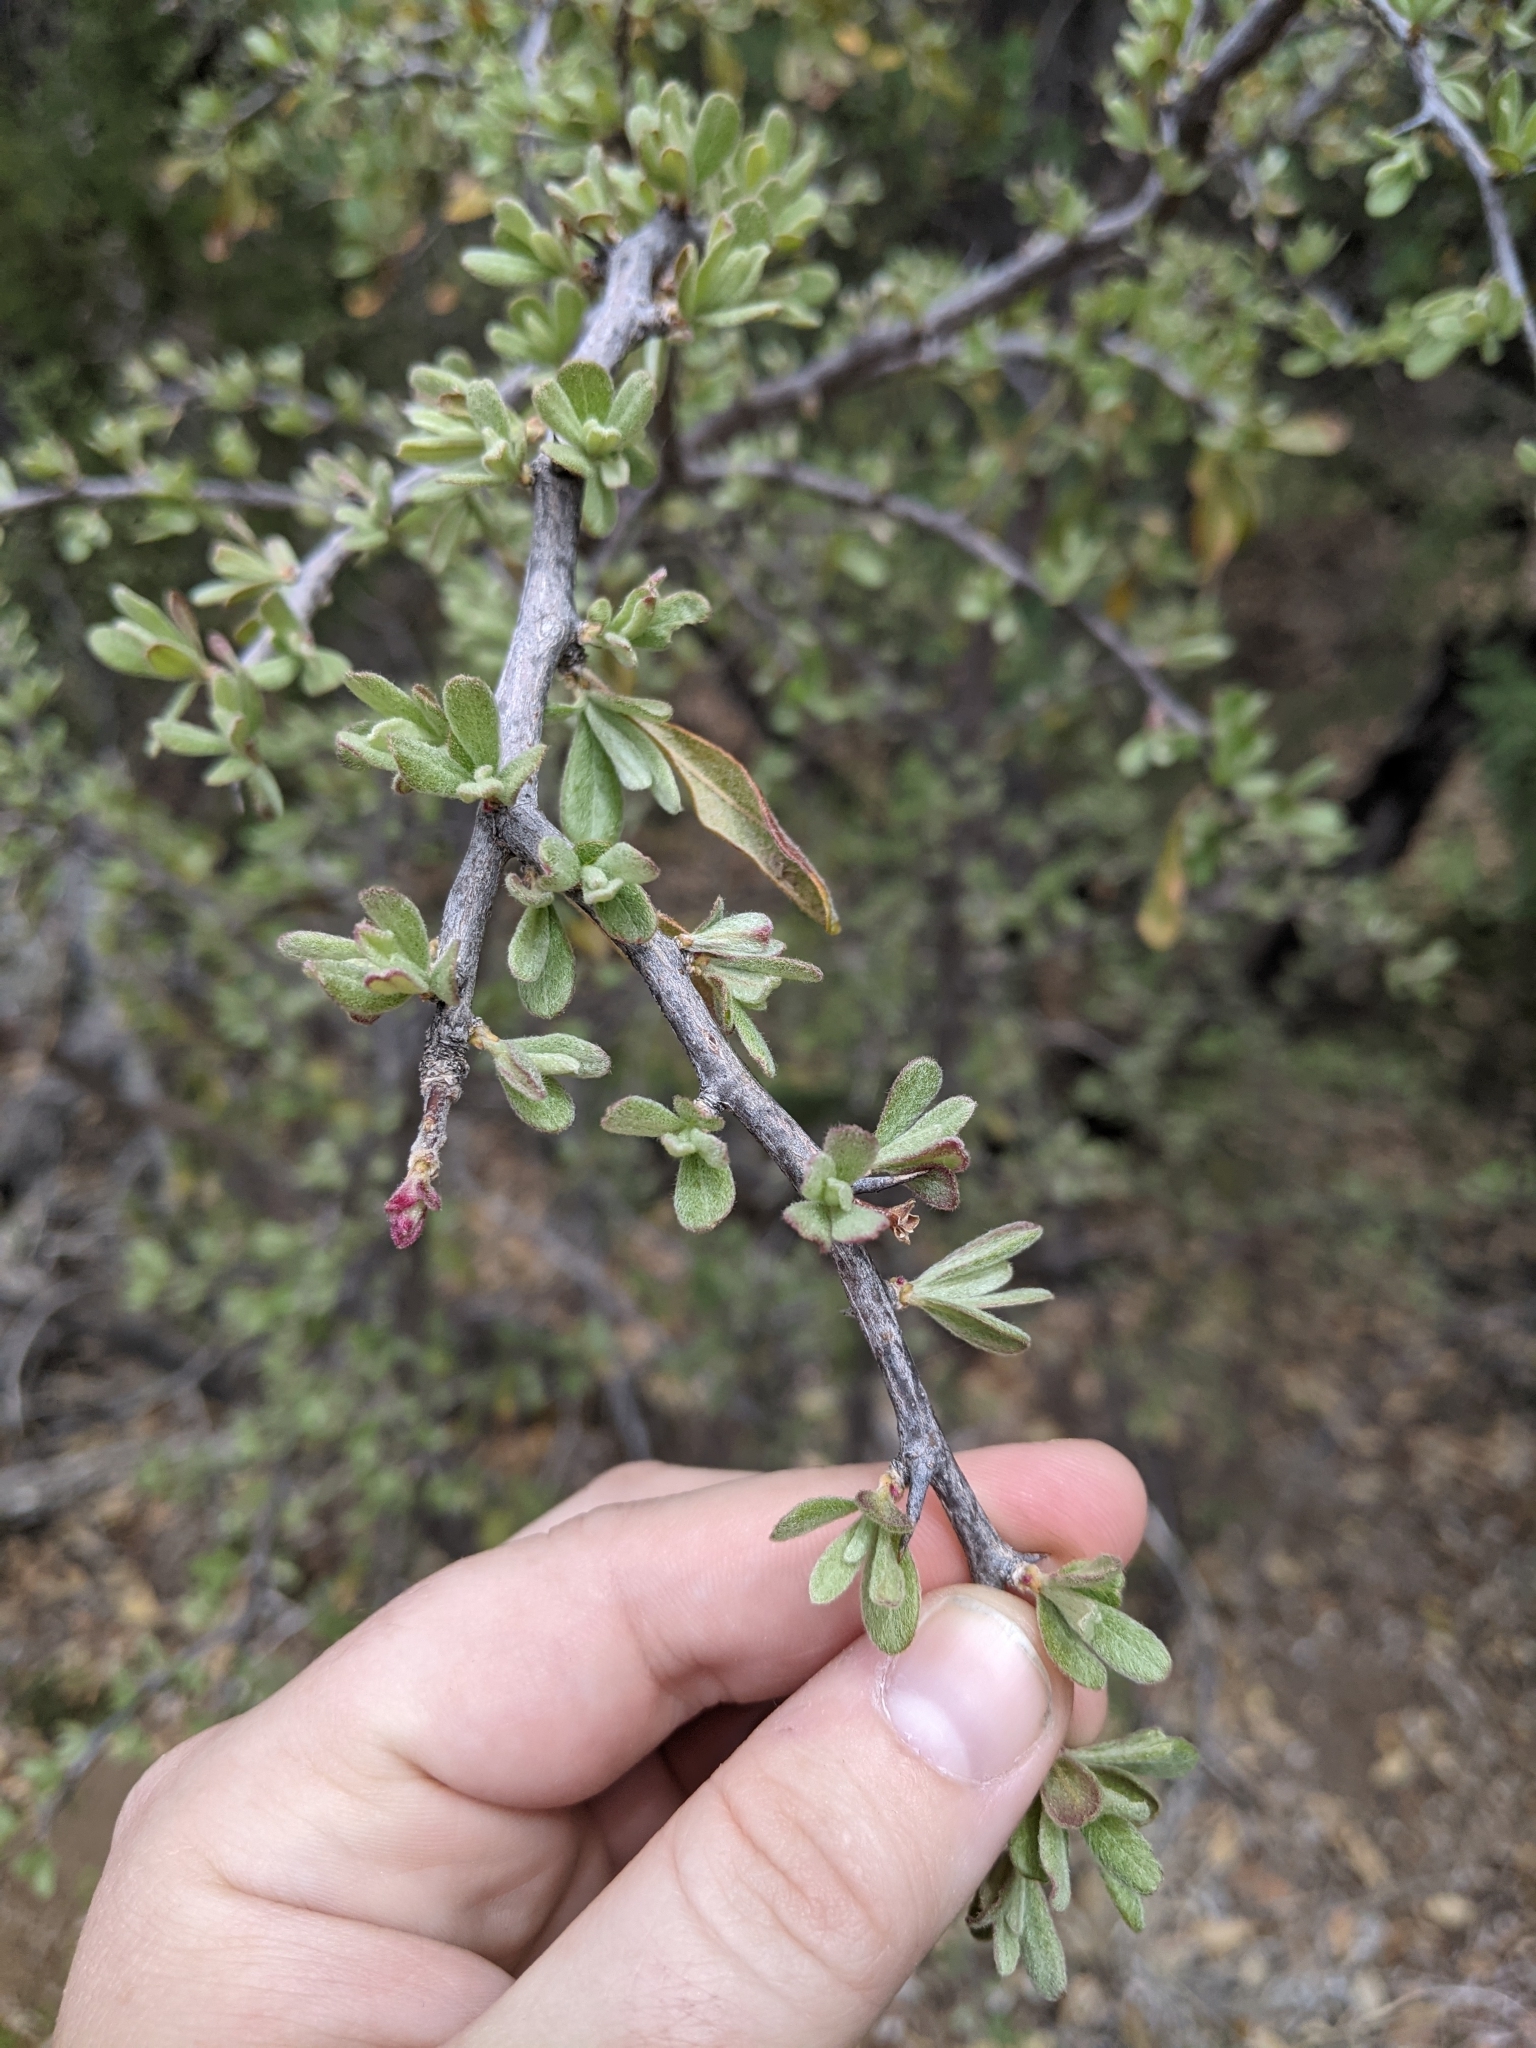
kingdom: Plantae
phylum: Tracheophyta
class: Magnoliopsida
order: Ericales
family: Sapotaceae
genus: Sideroxylon
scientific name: Sideroxylon lanuginosum
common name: Chittamwood
